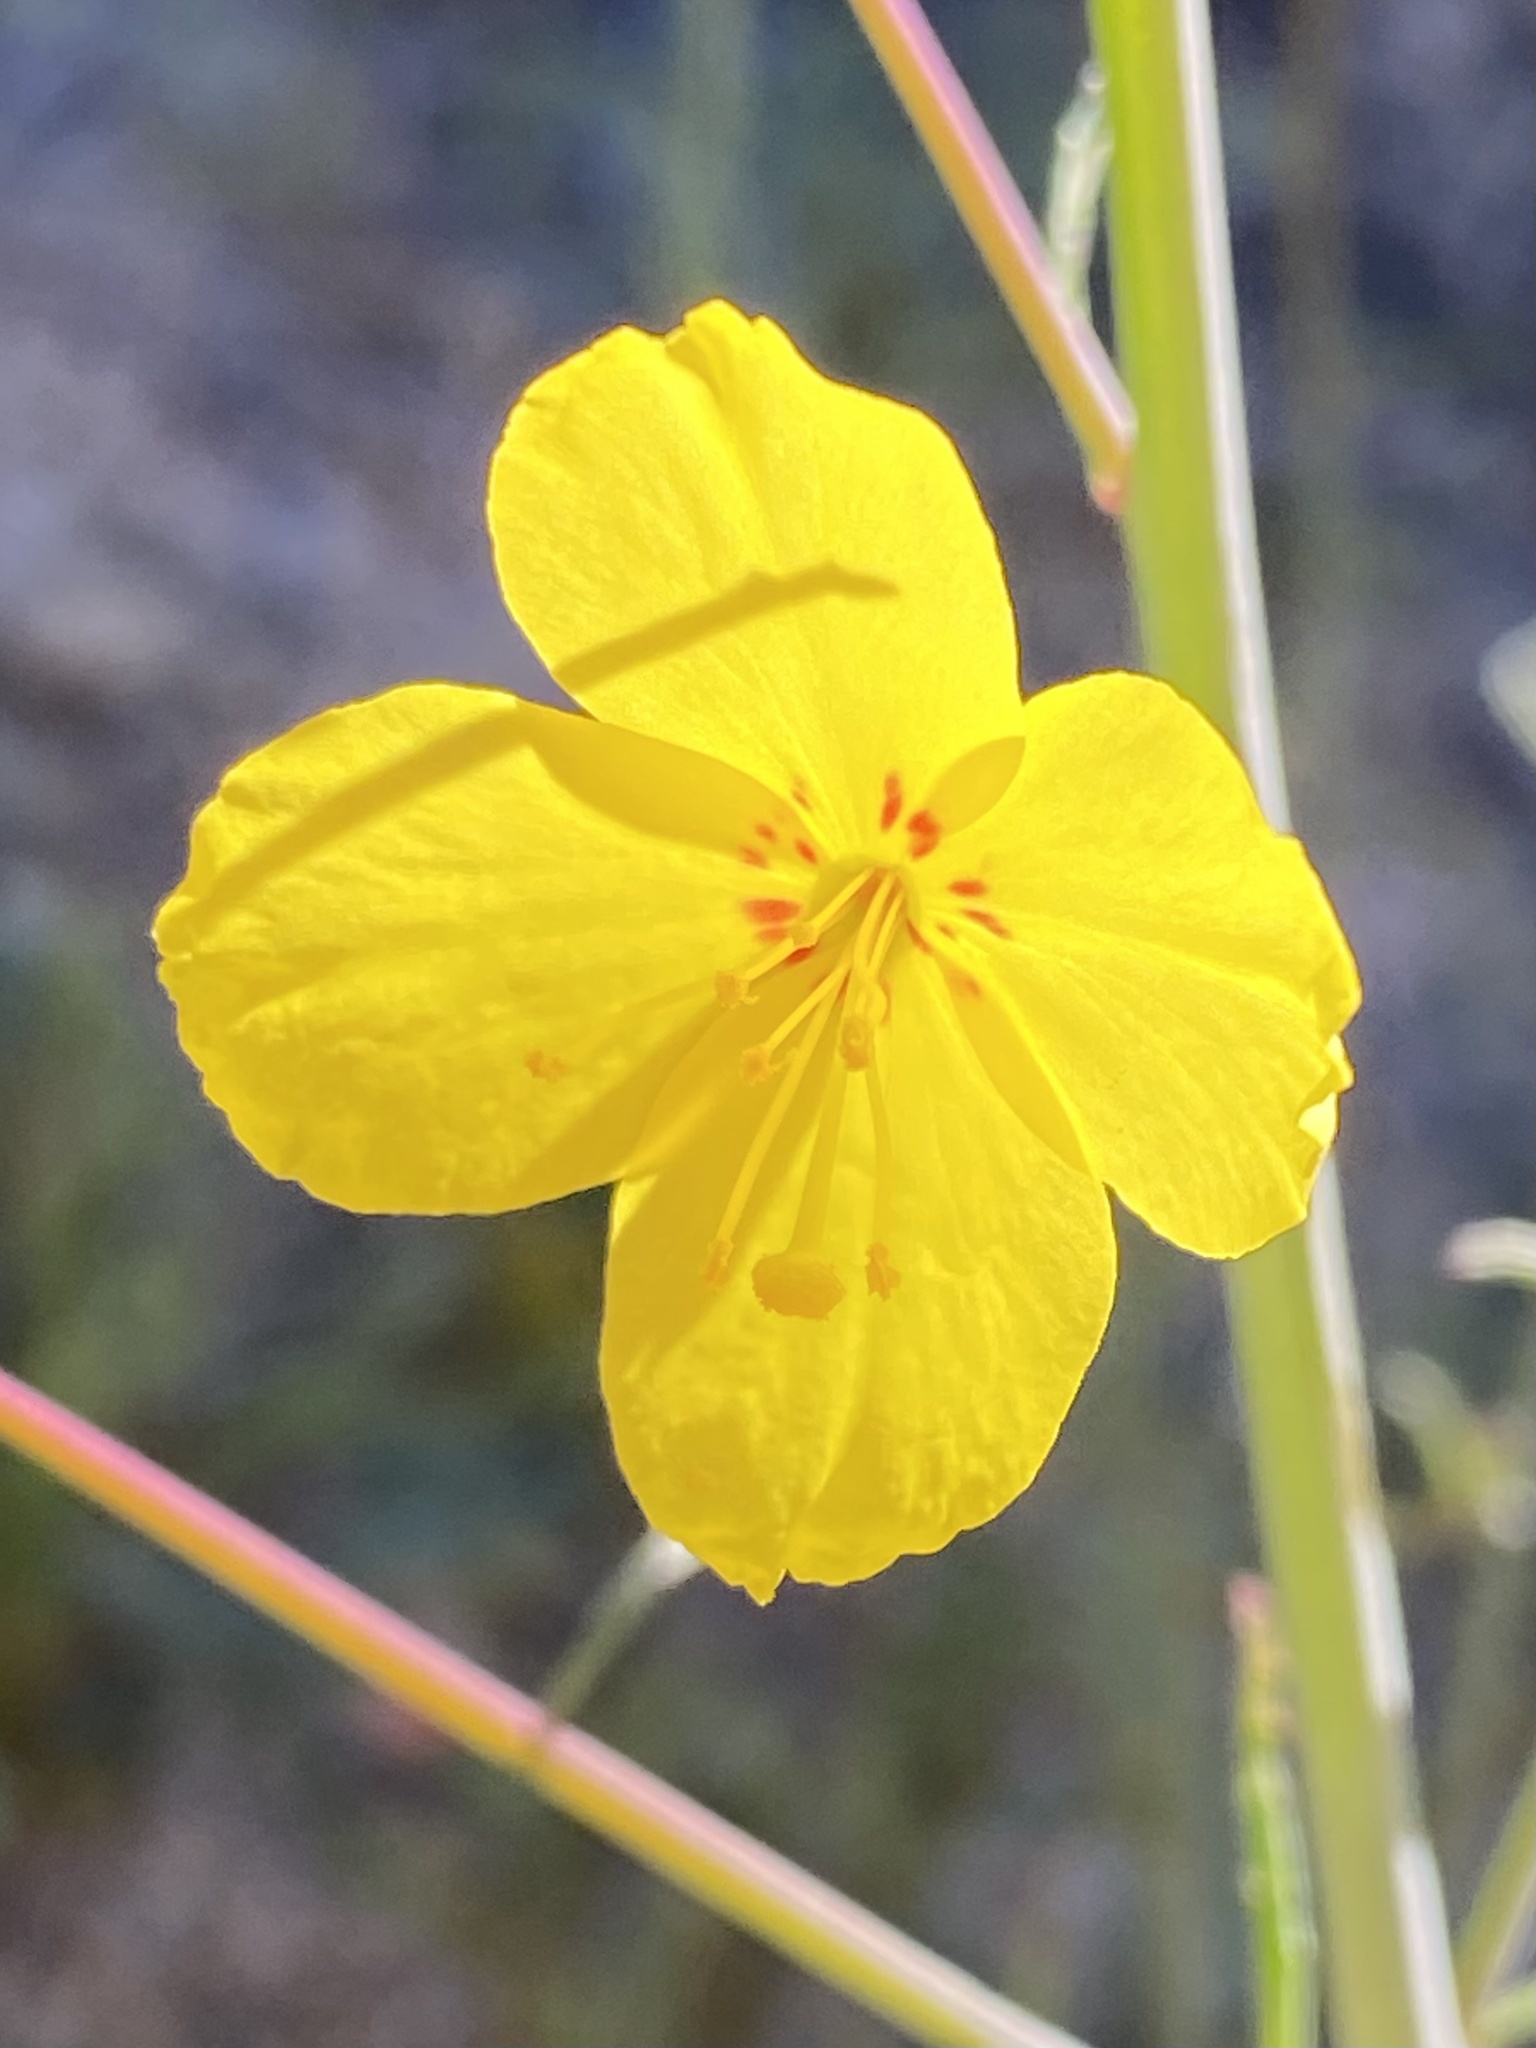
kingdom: Plantae
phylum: Tracheophyta
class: Magnoliopsida
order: Myrtales
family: Onagraceae
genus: Eulobus
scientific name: Eulobus californicus
